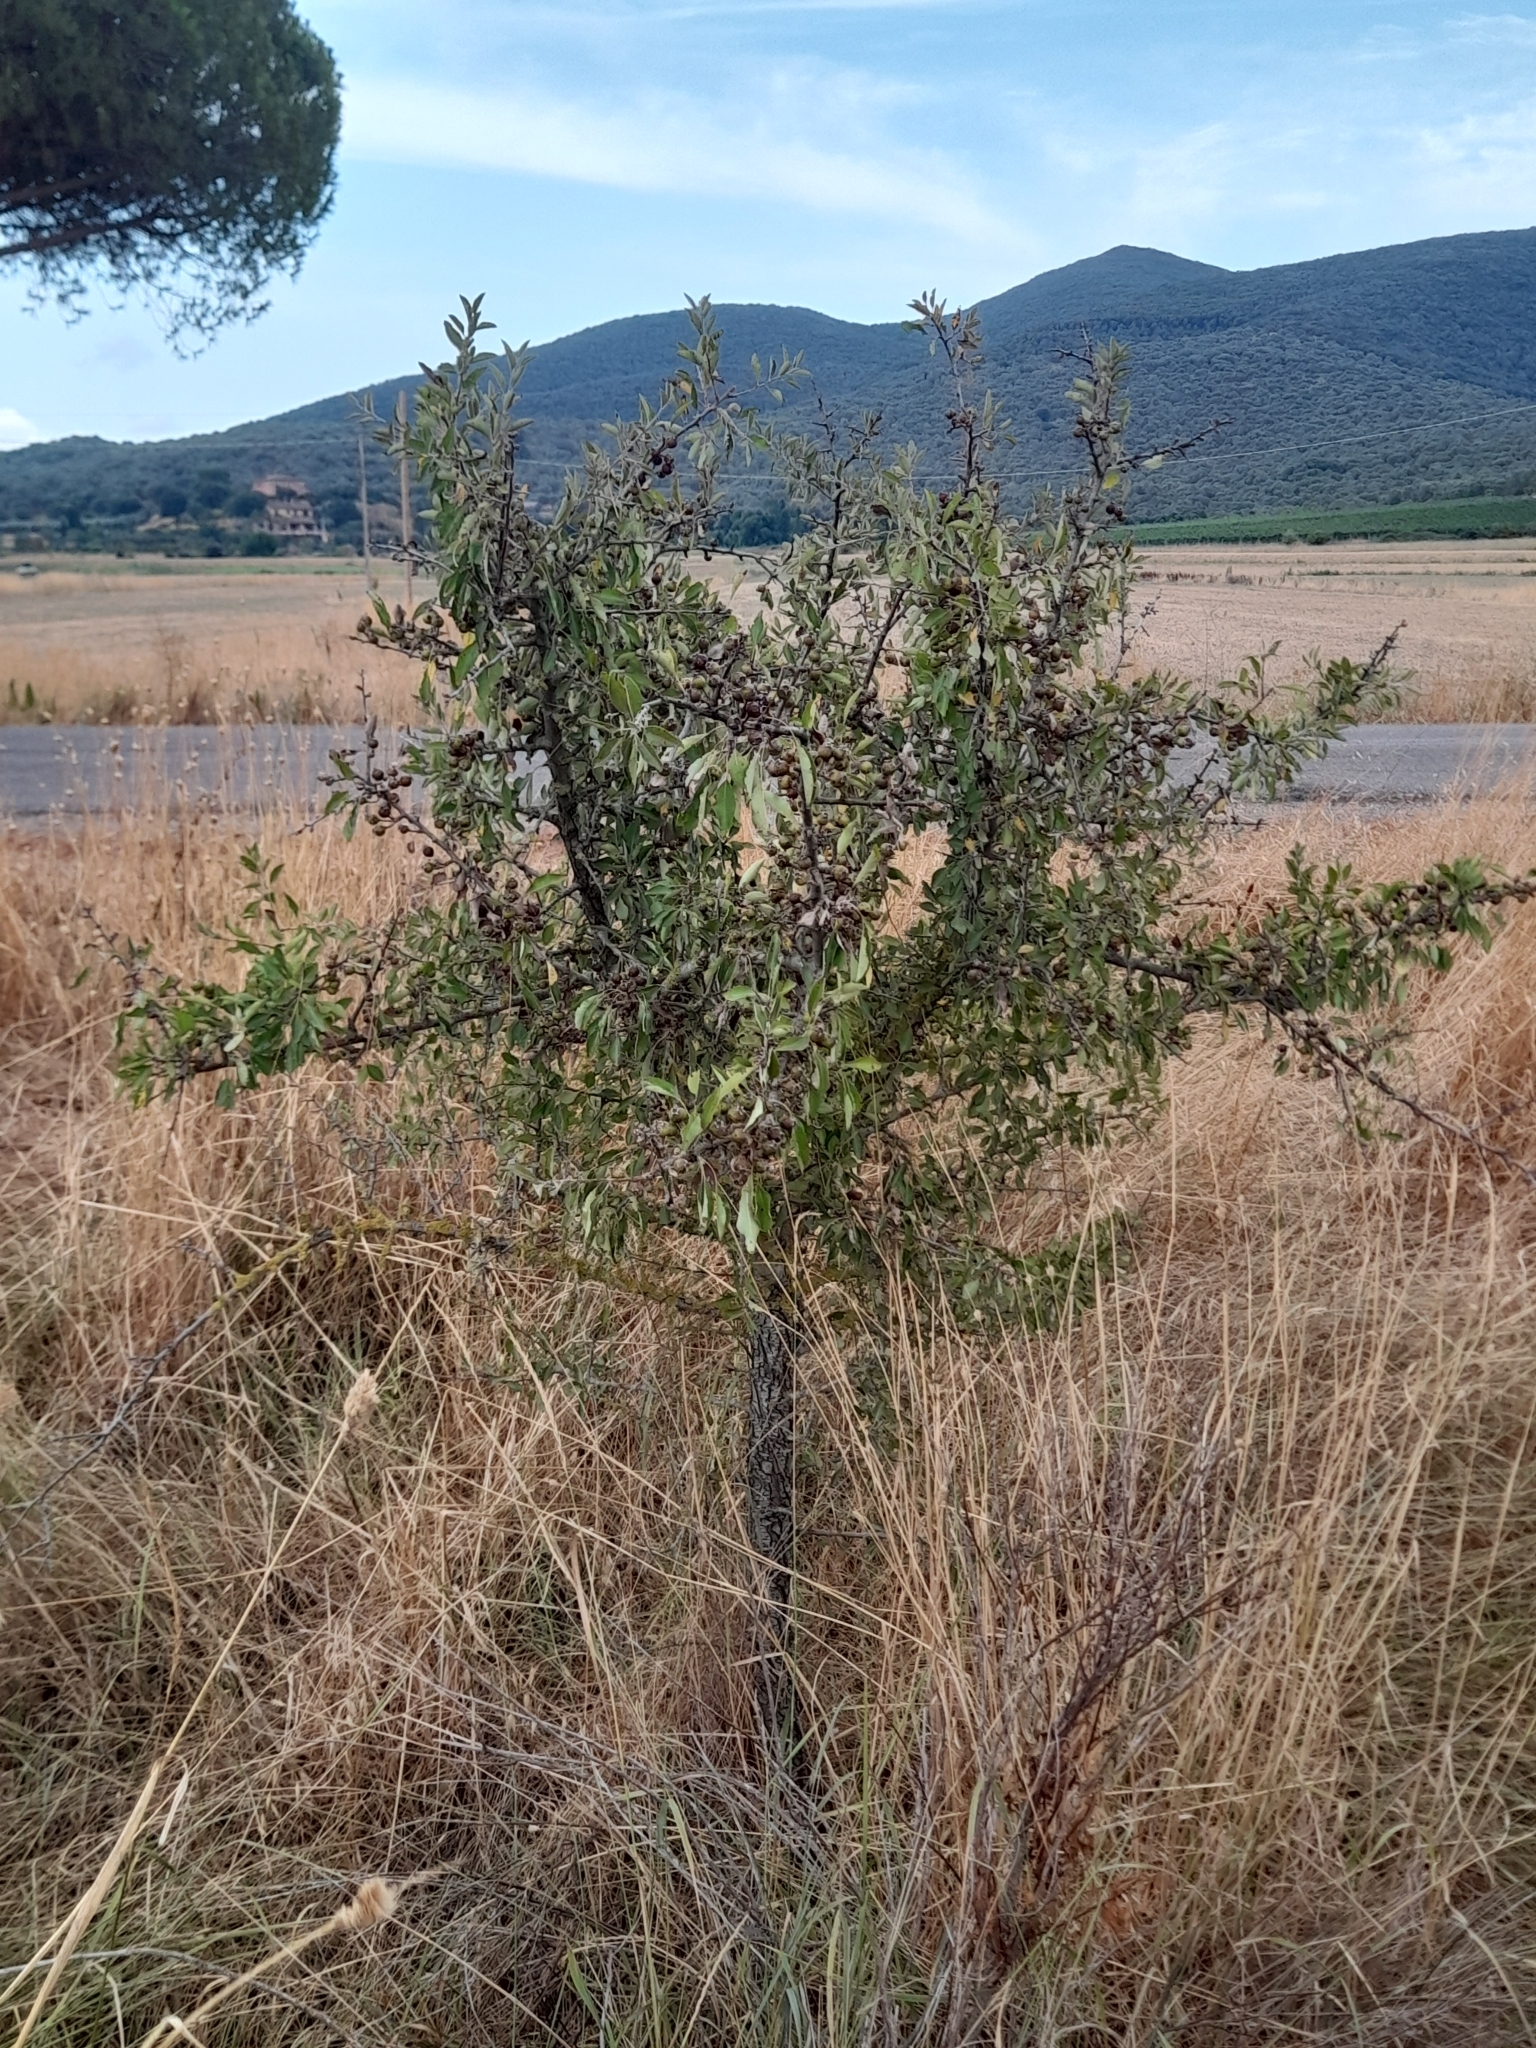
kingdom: Plantae
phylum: Tracheophyta
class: Magnoliopsida
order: Rosales
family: Rosaceae
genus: Pyrus
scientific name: Pyrus spinosa
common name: Almond-leaf pear
